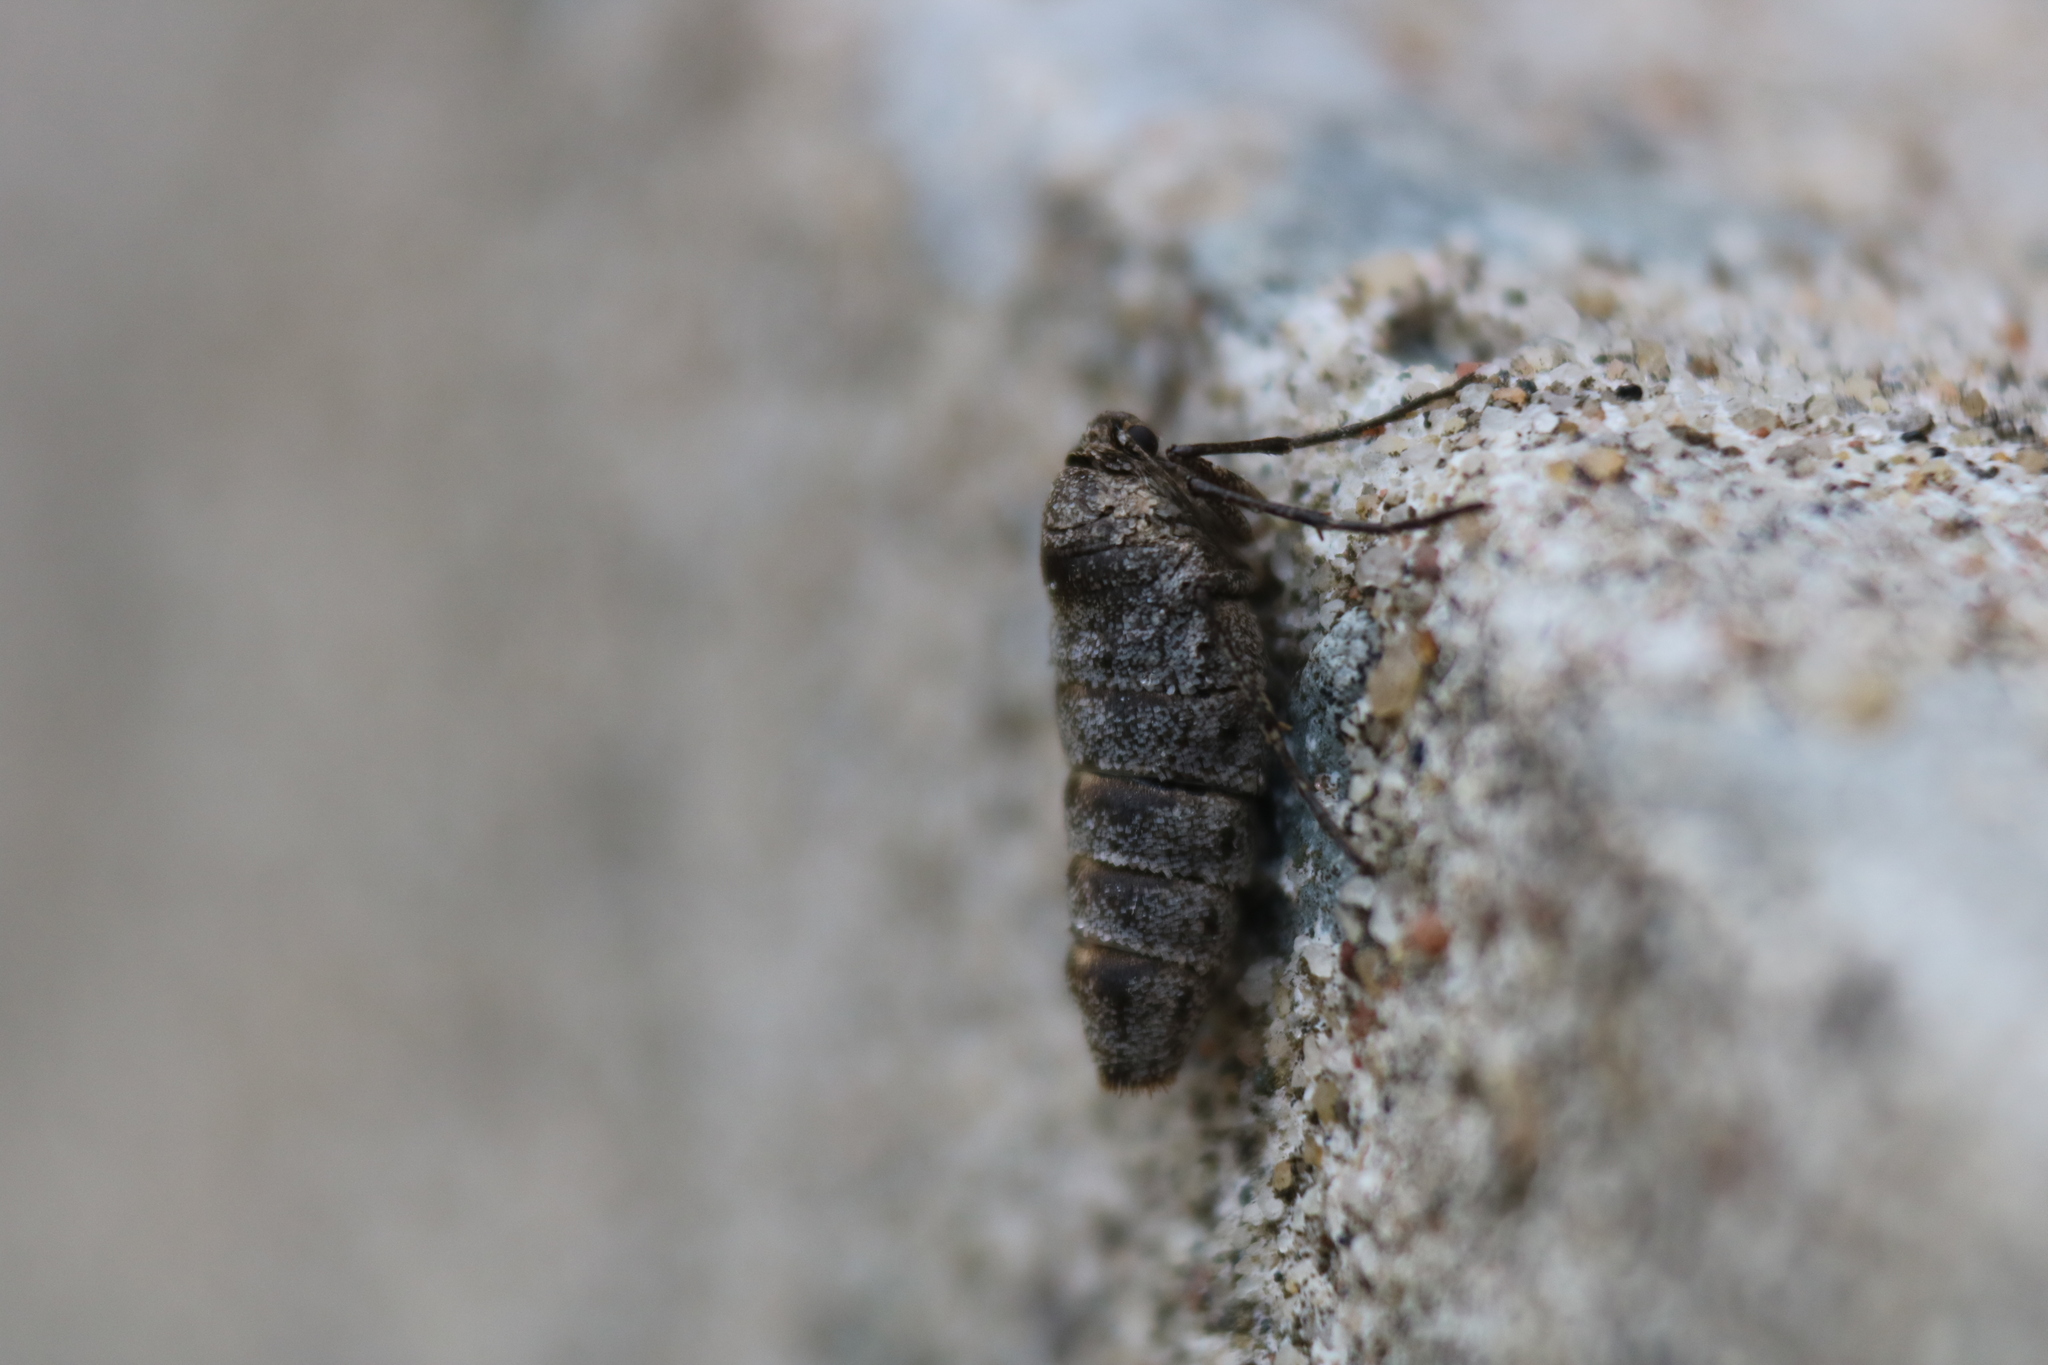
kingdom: Animalia
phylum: Arthropoda
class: Insecta
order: Lepidoptera
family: Geometridae
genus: Alsophila
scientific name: Alsophila pometaria
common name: Fall cankerworm
